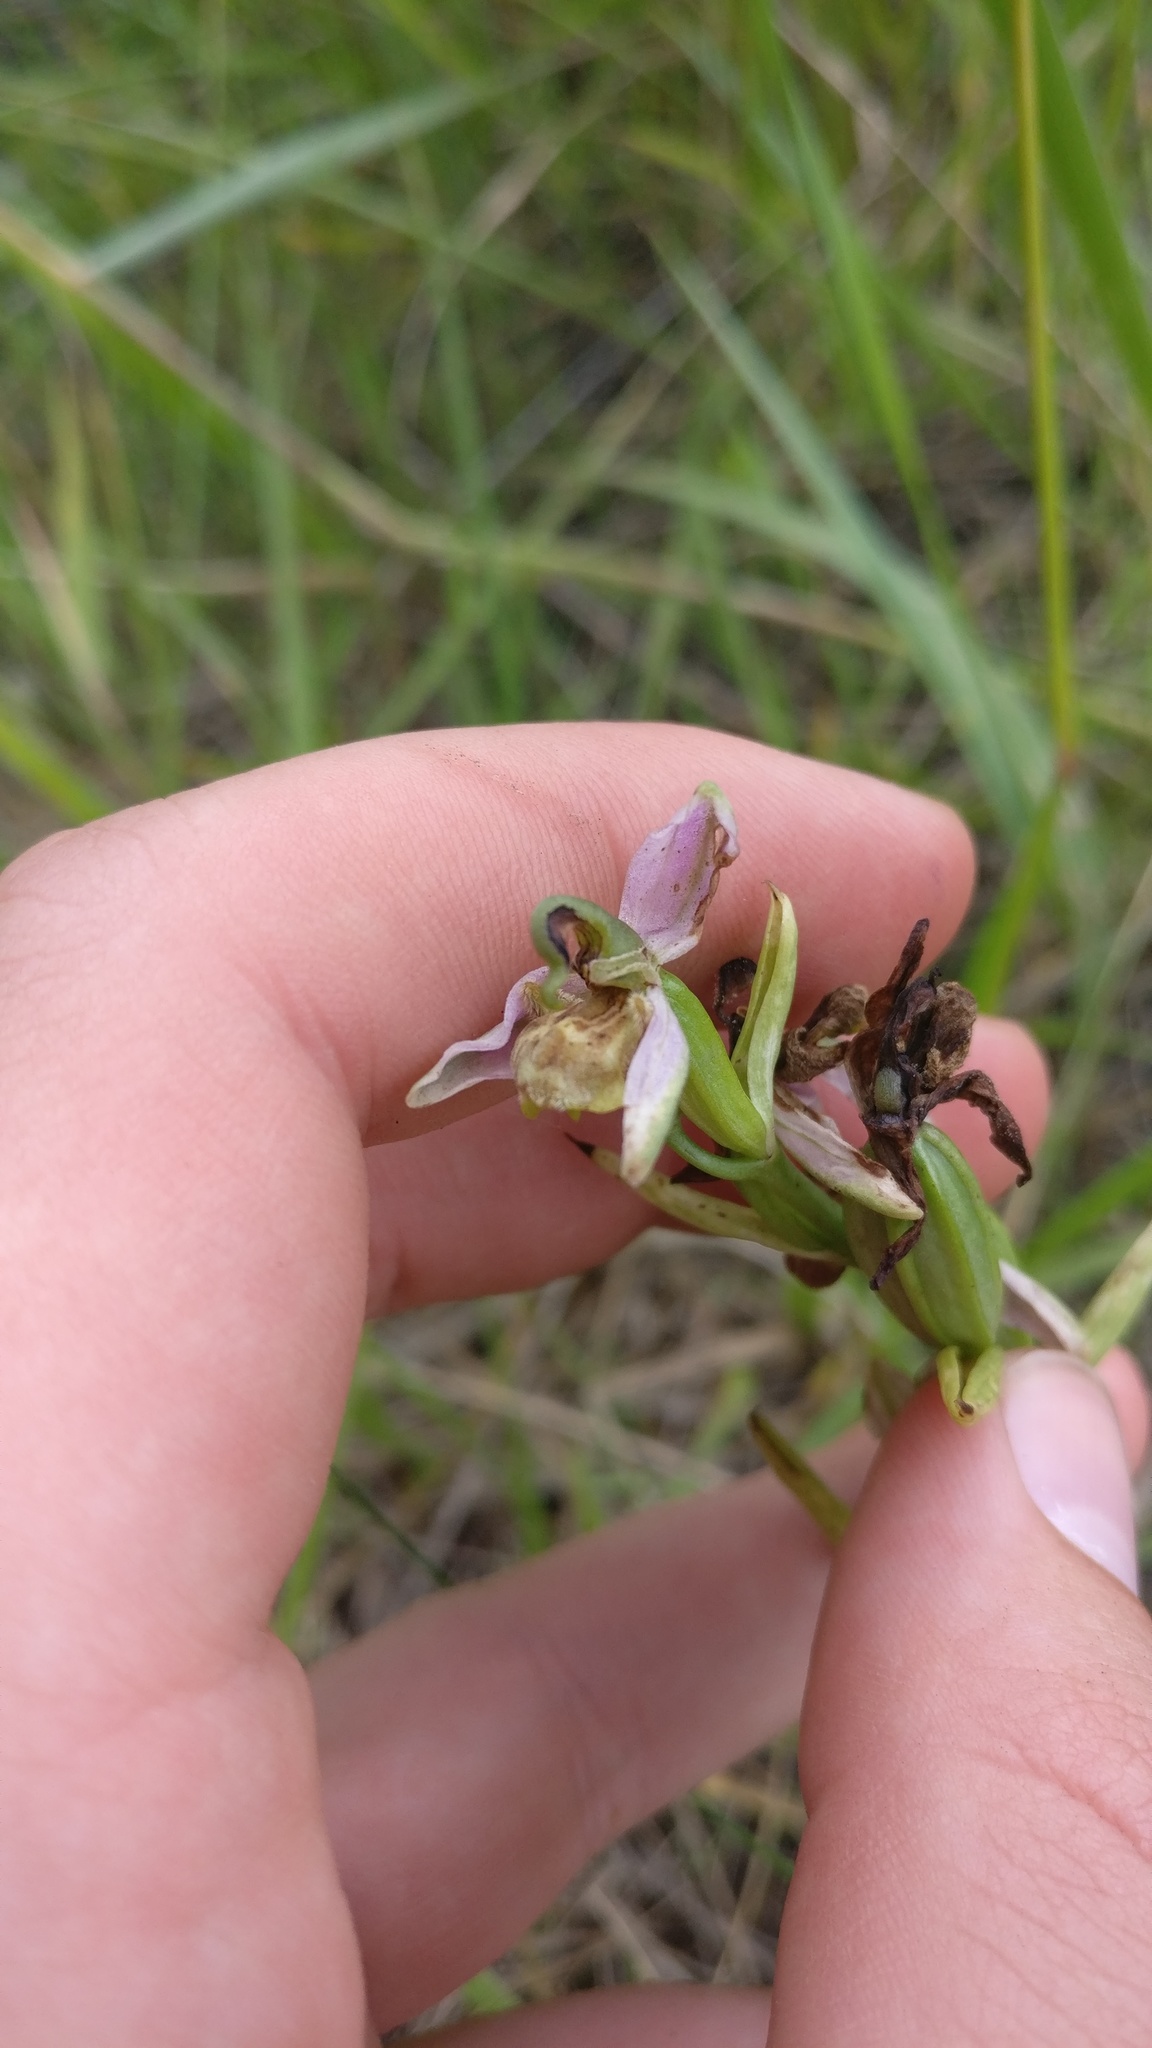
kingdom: Plantae
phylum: Tracheophyta
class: Liliopsida
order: Asparagales
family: Orchidaceae
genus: Ophrys
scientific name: Ophrys apifera
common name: Bee orchid
